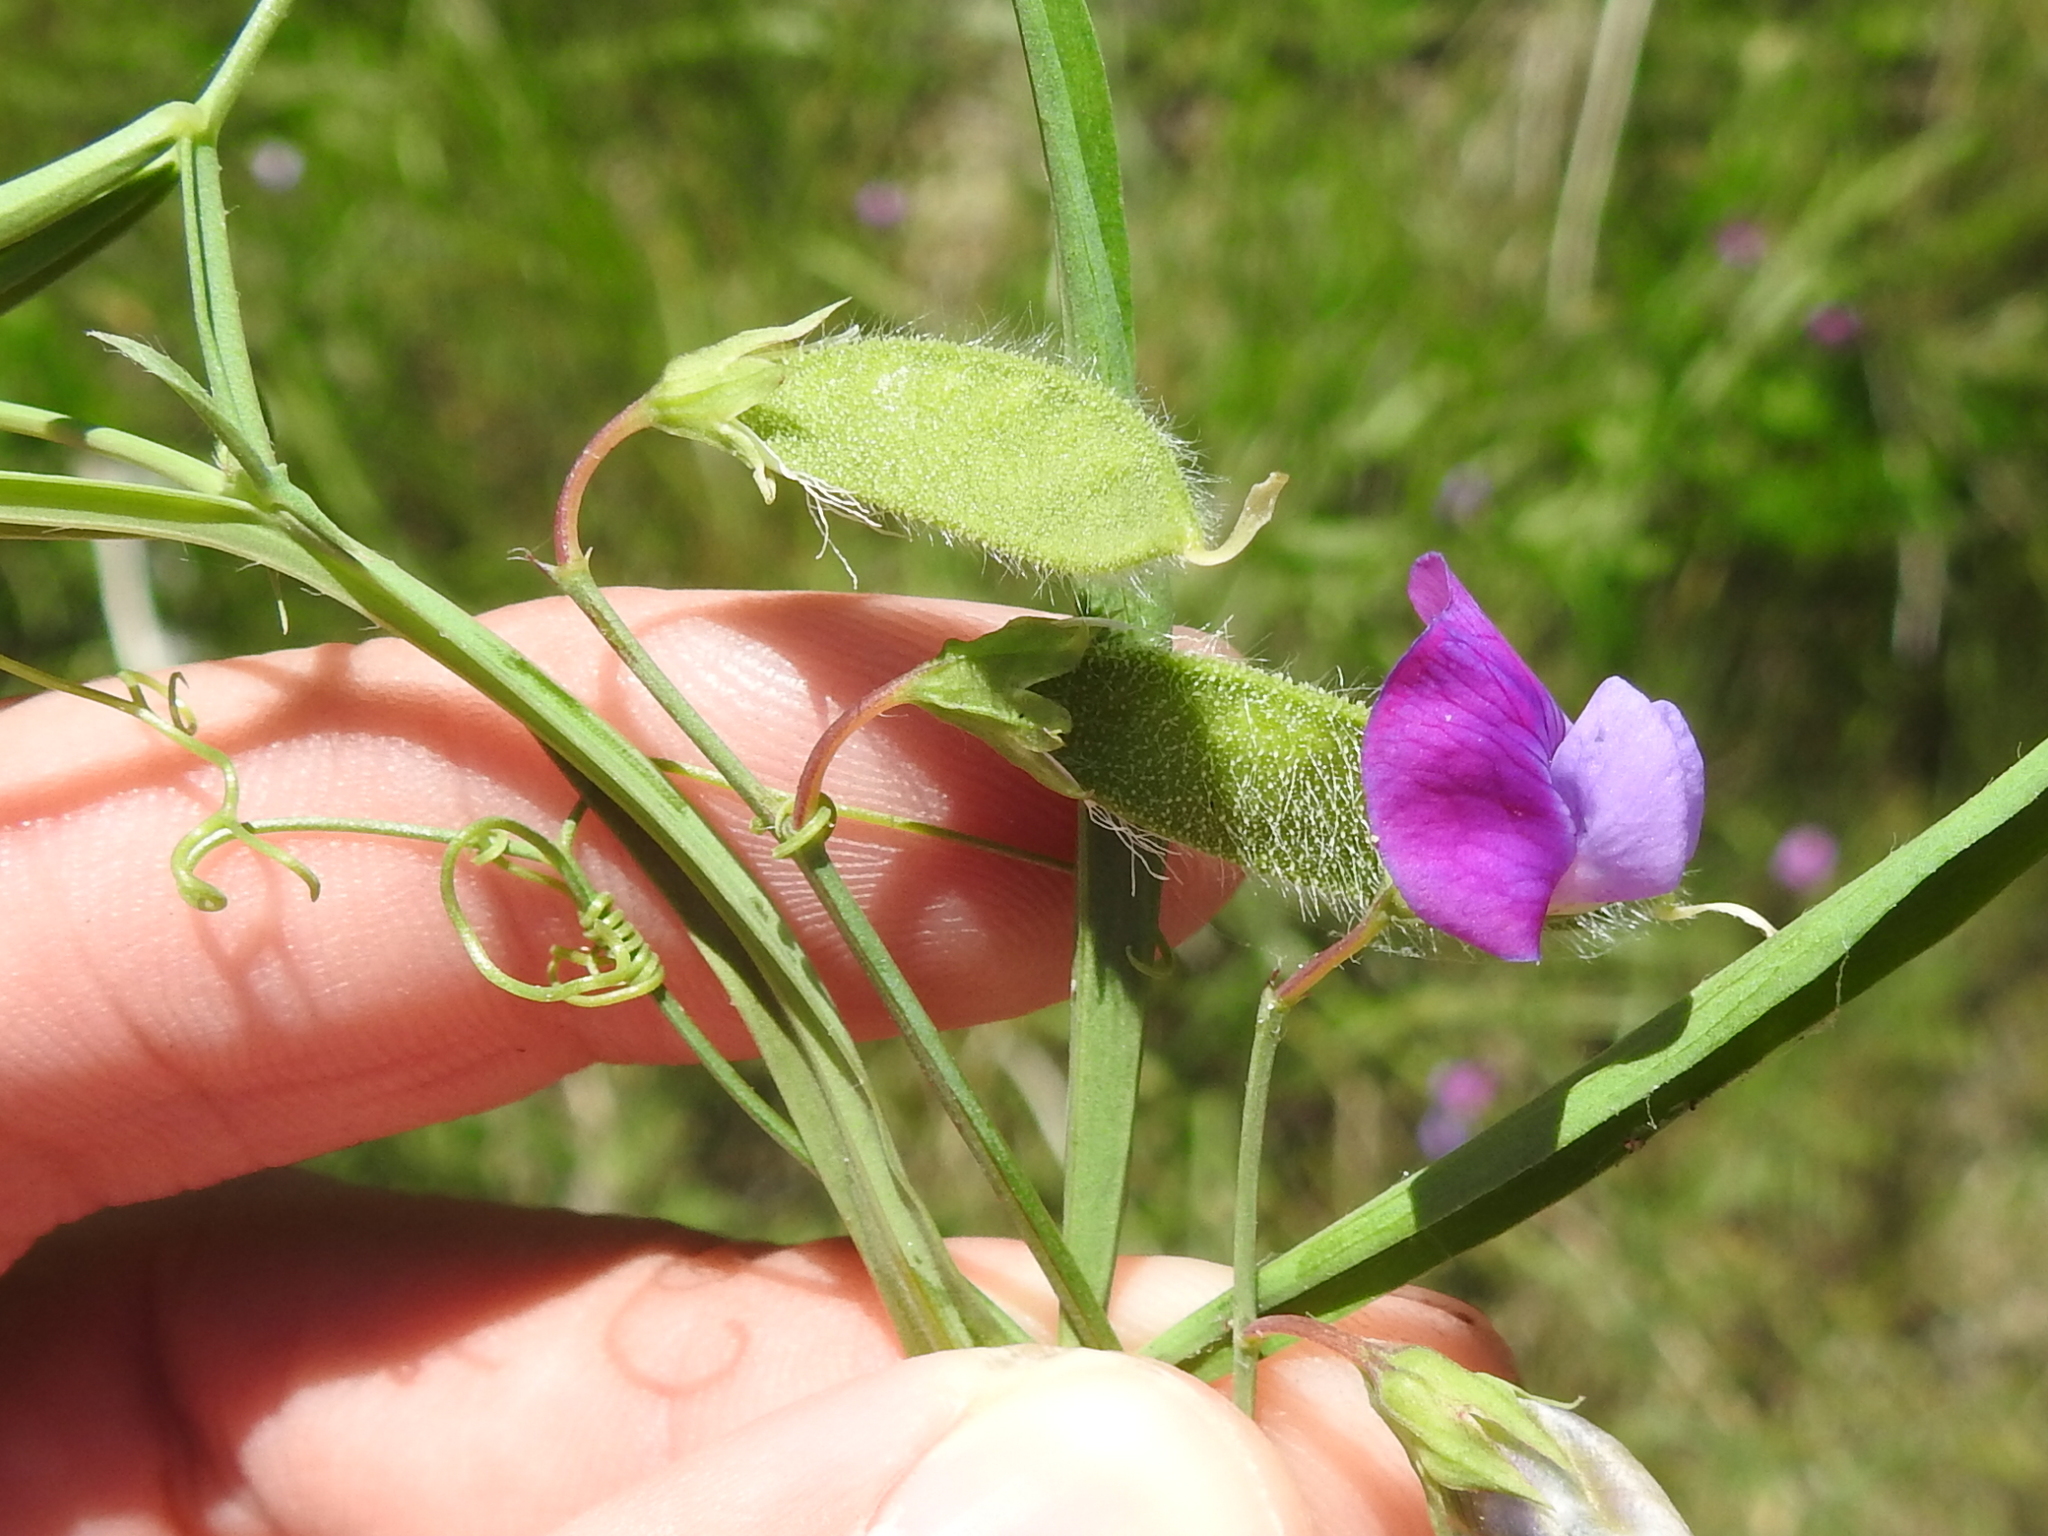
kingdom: Plantae
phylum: Tracheophyta
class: Magnoliopsida
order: Fabales
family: Fabaceae
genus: Lathyrus
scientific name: Lathyrus hirsutus
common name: Hairy vetchling
